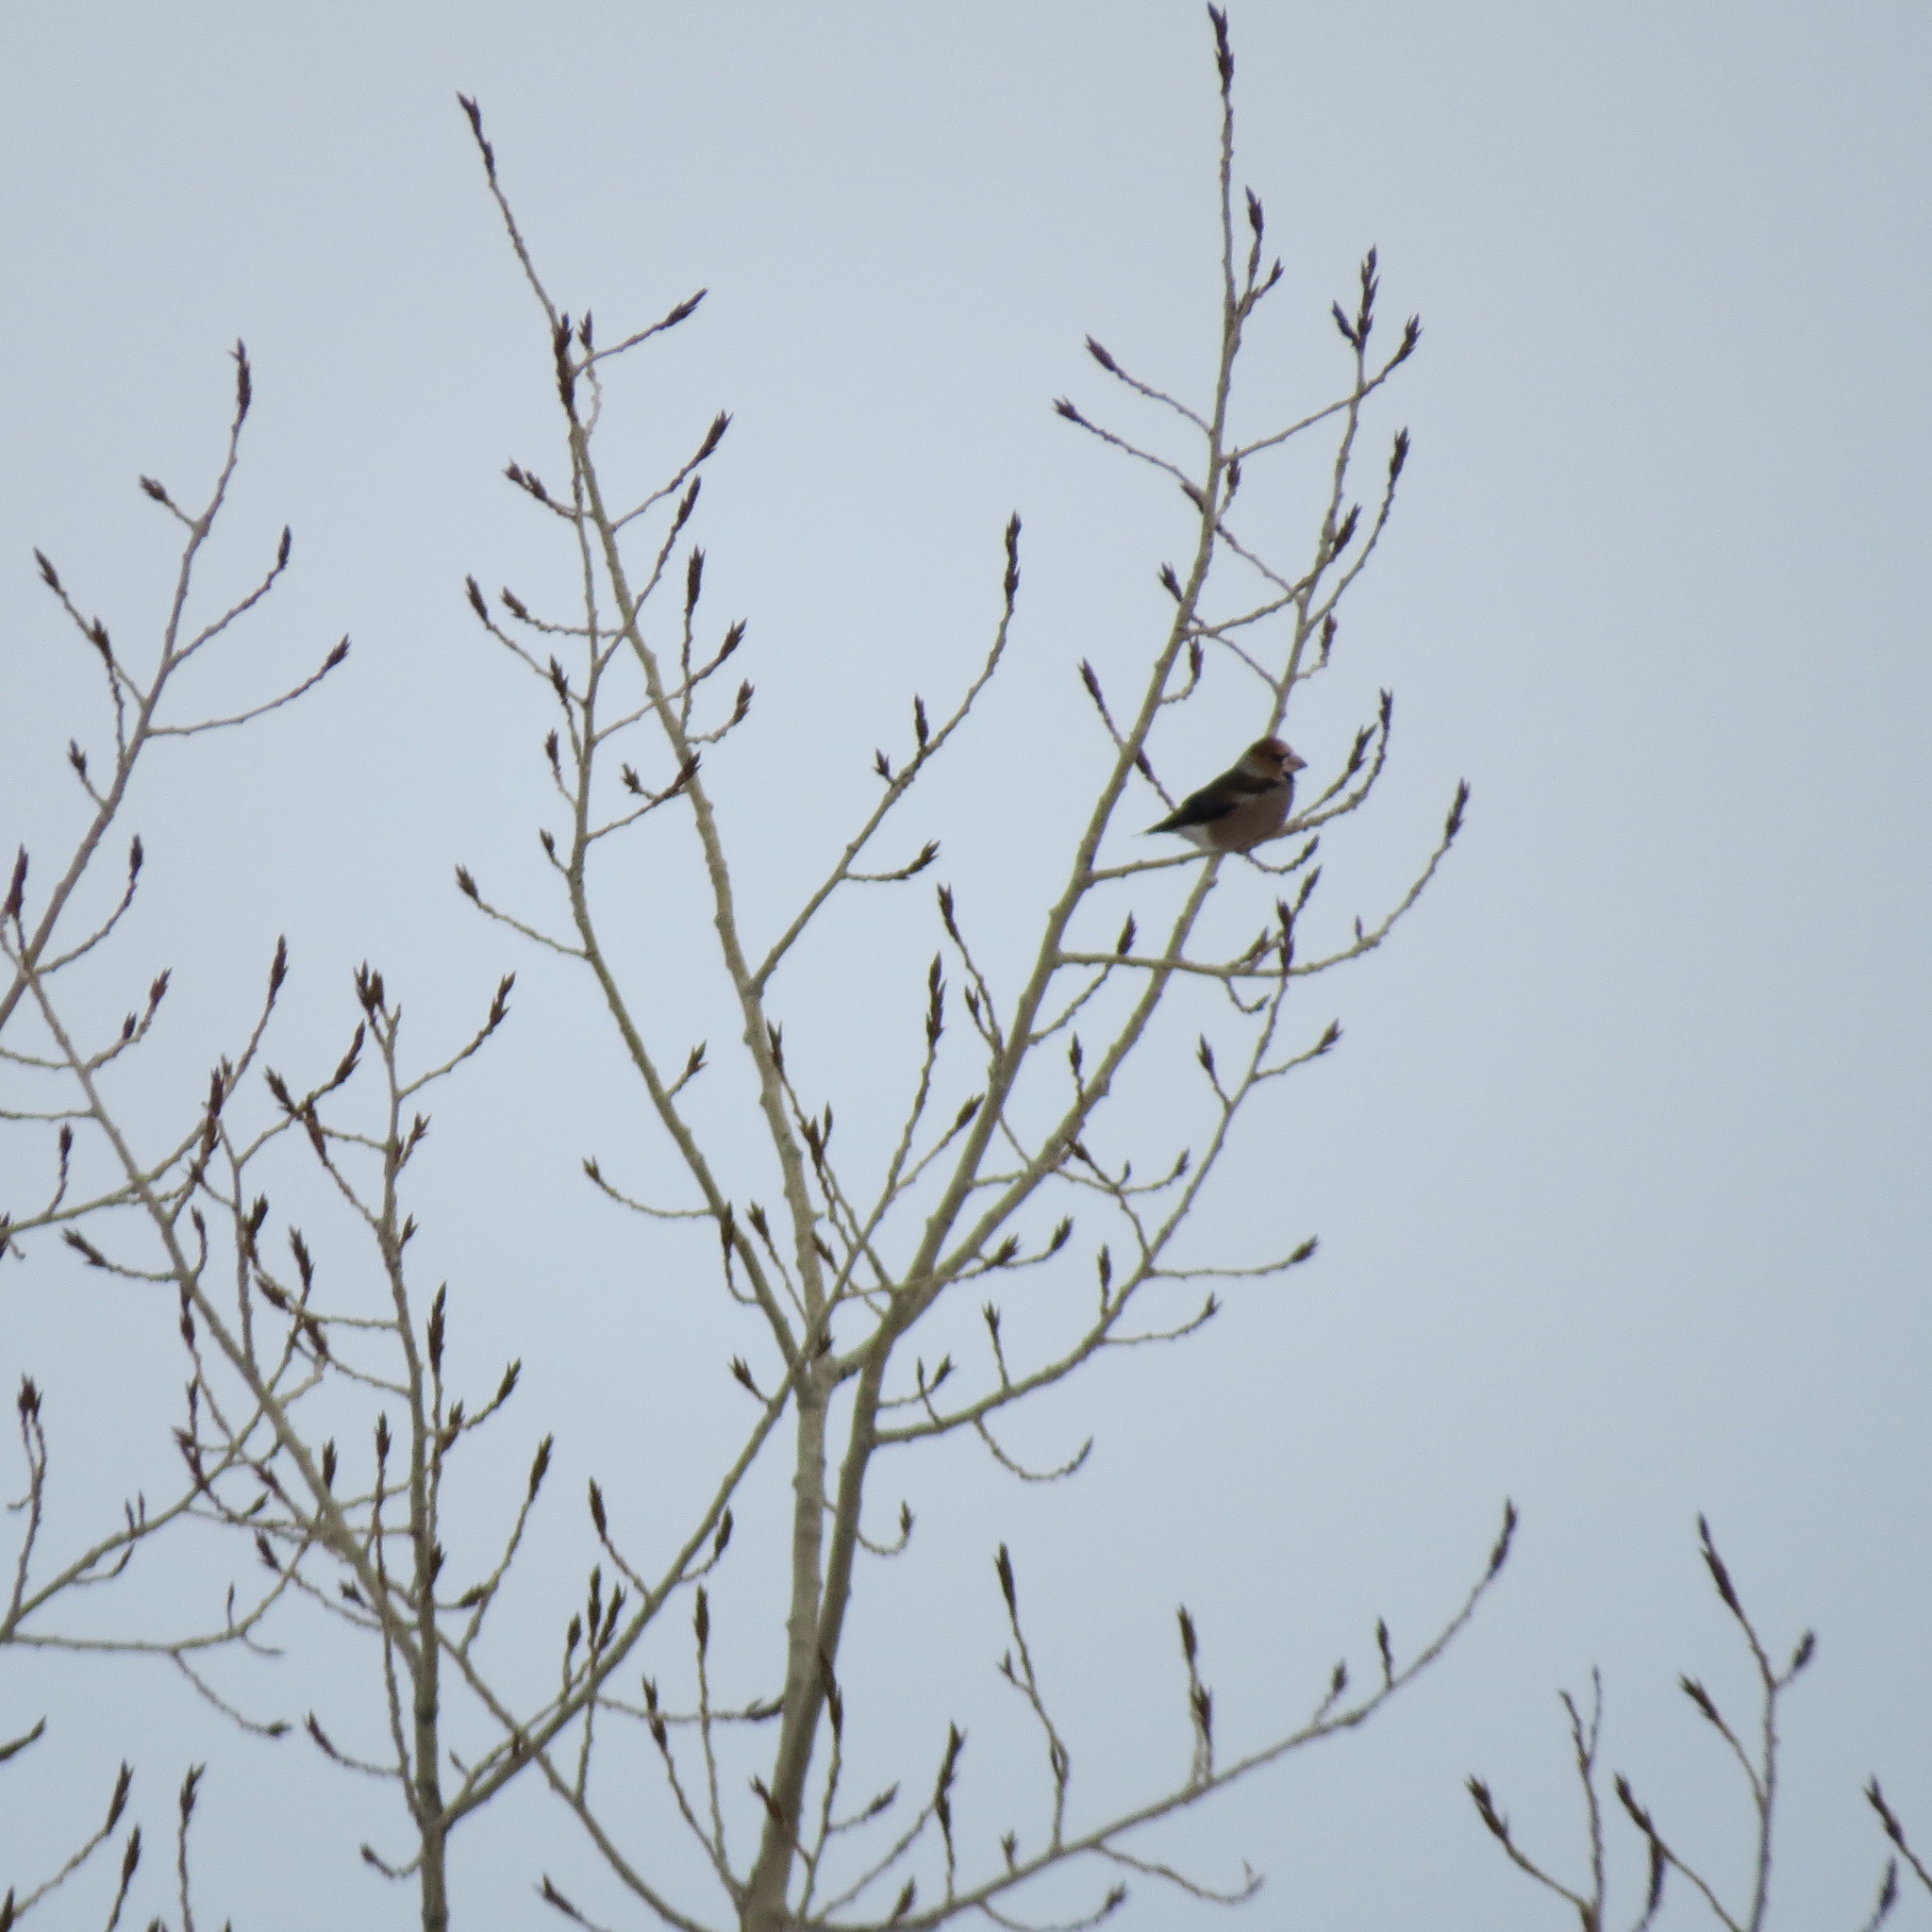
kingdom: Animalia
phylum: Chordata
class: Aves
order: Passeriformes
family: Fringillidae
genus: Coccothraustes
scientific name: Coccothraustes coccothraustes
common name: Hawfinch
